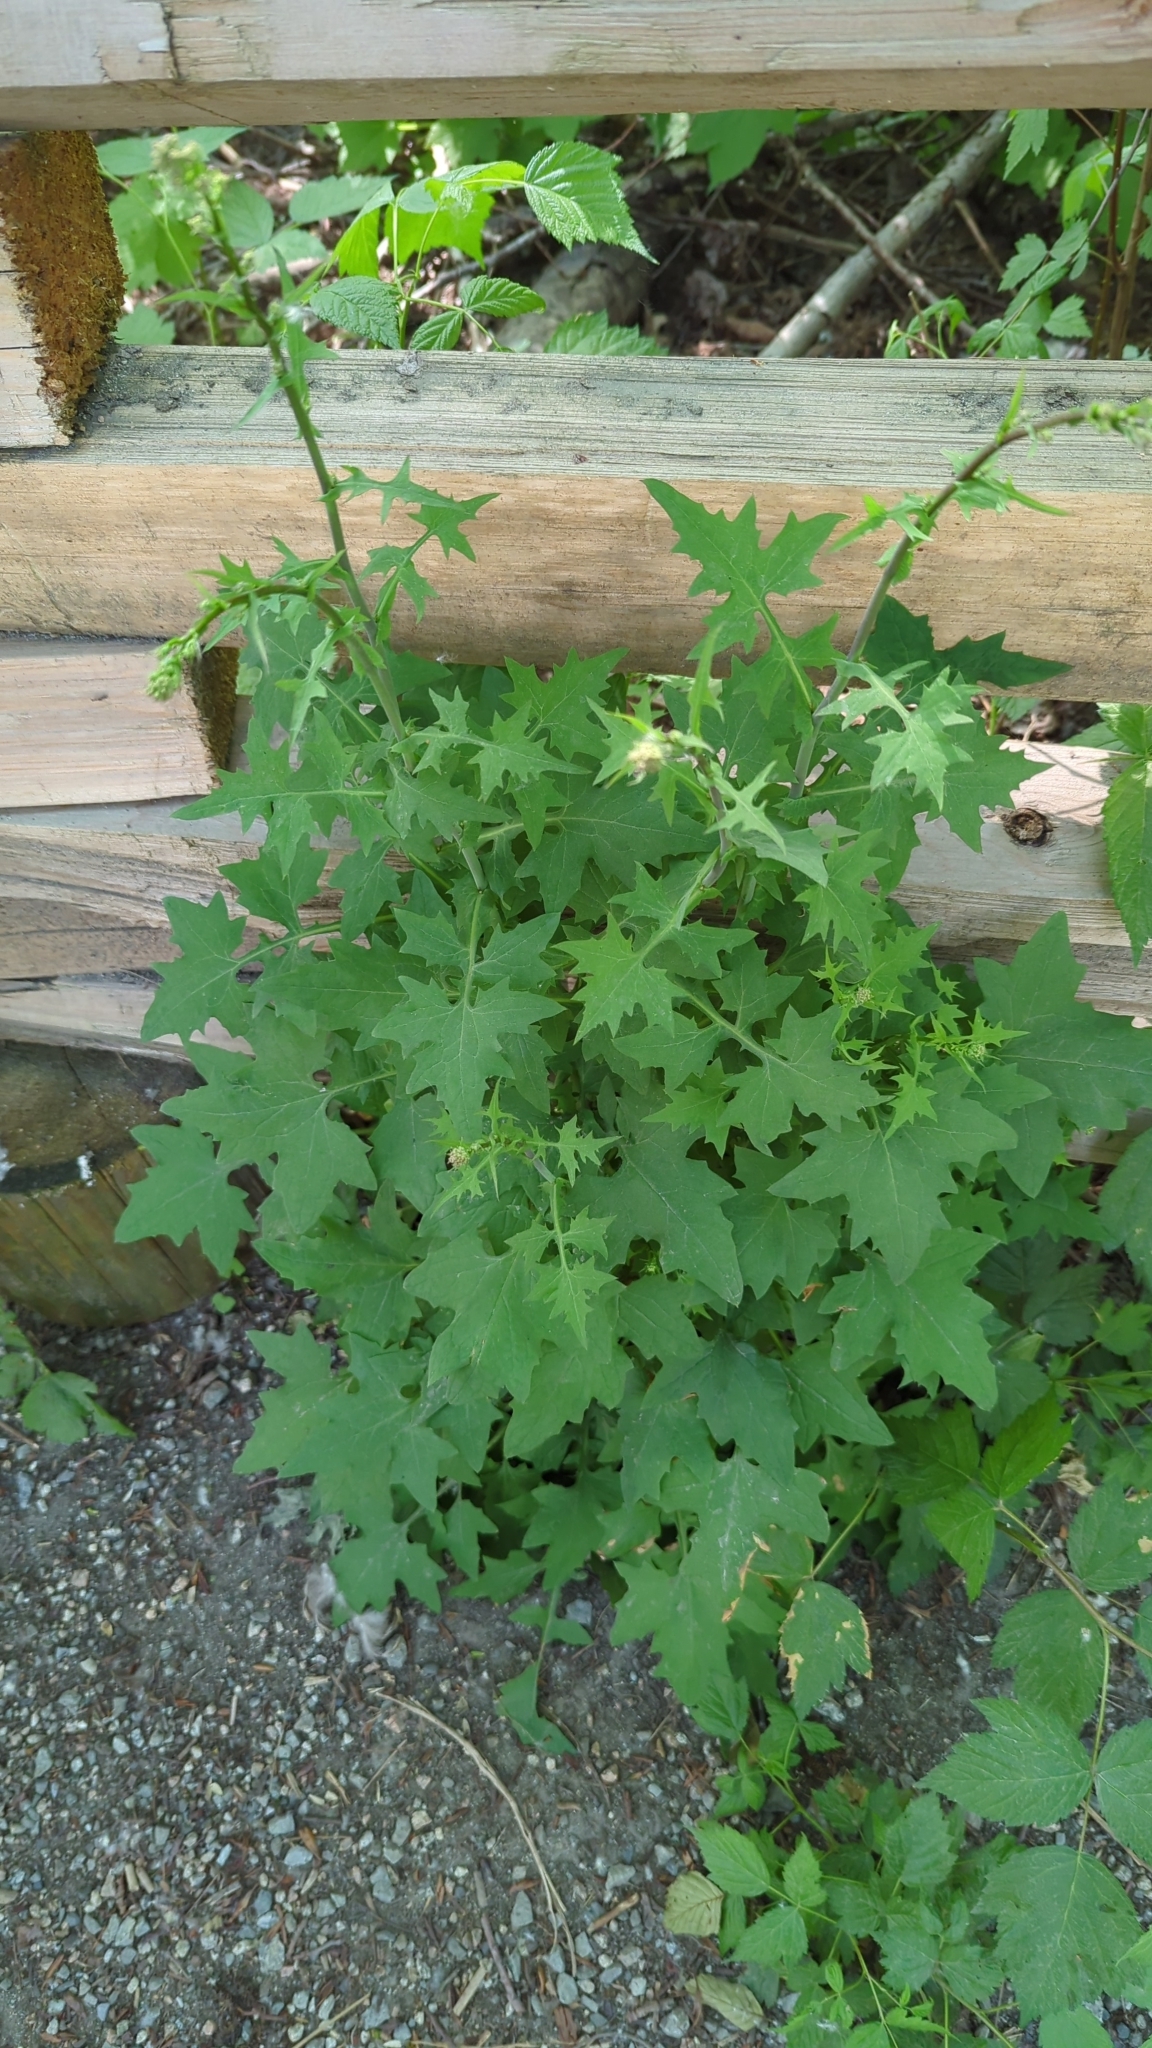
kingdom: Plantae
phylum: Tracheophyta
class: Magnoliopsida
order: Asterales
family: Asteraceae
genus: Mycelis
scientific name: Mycelis muralis
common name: Wall lettuce
